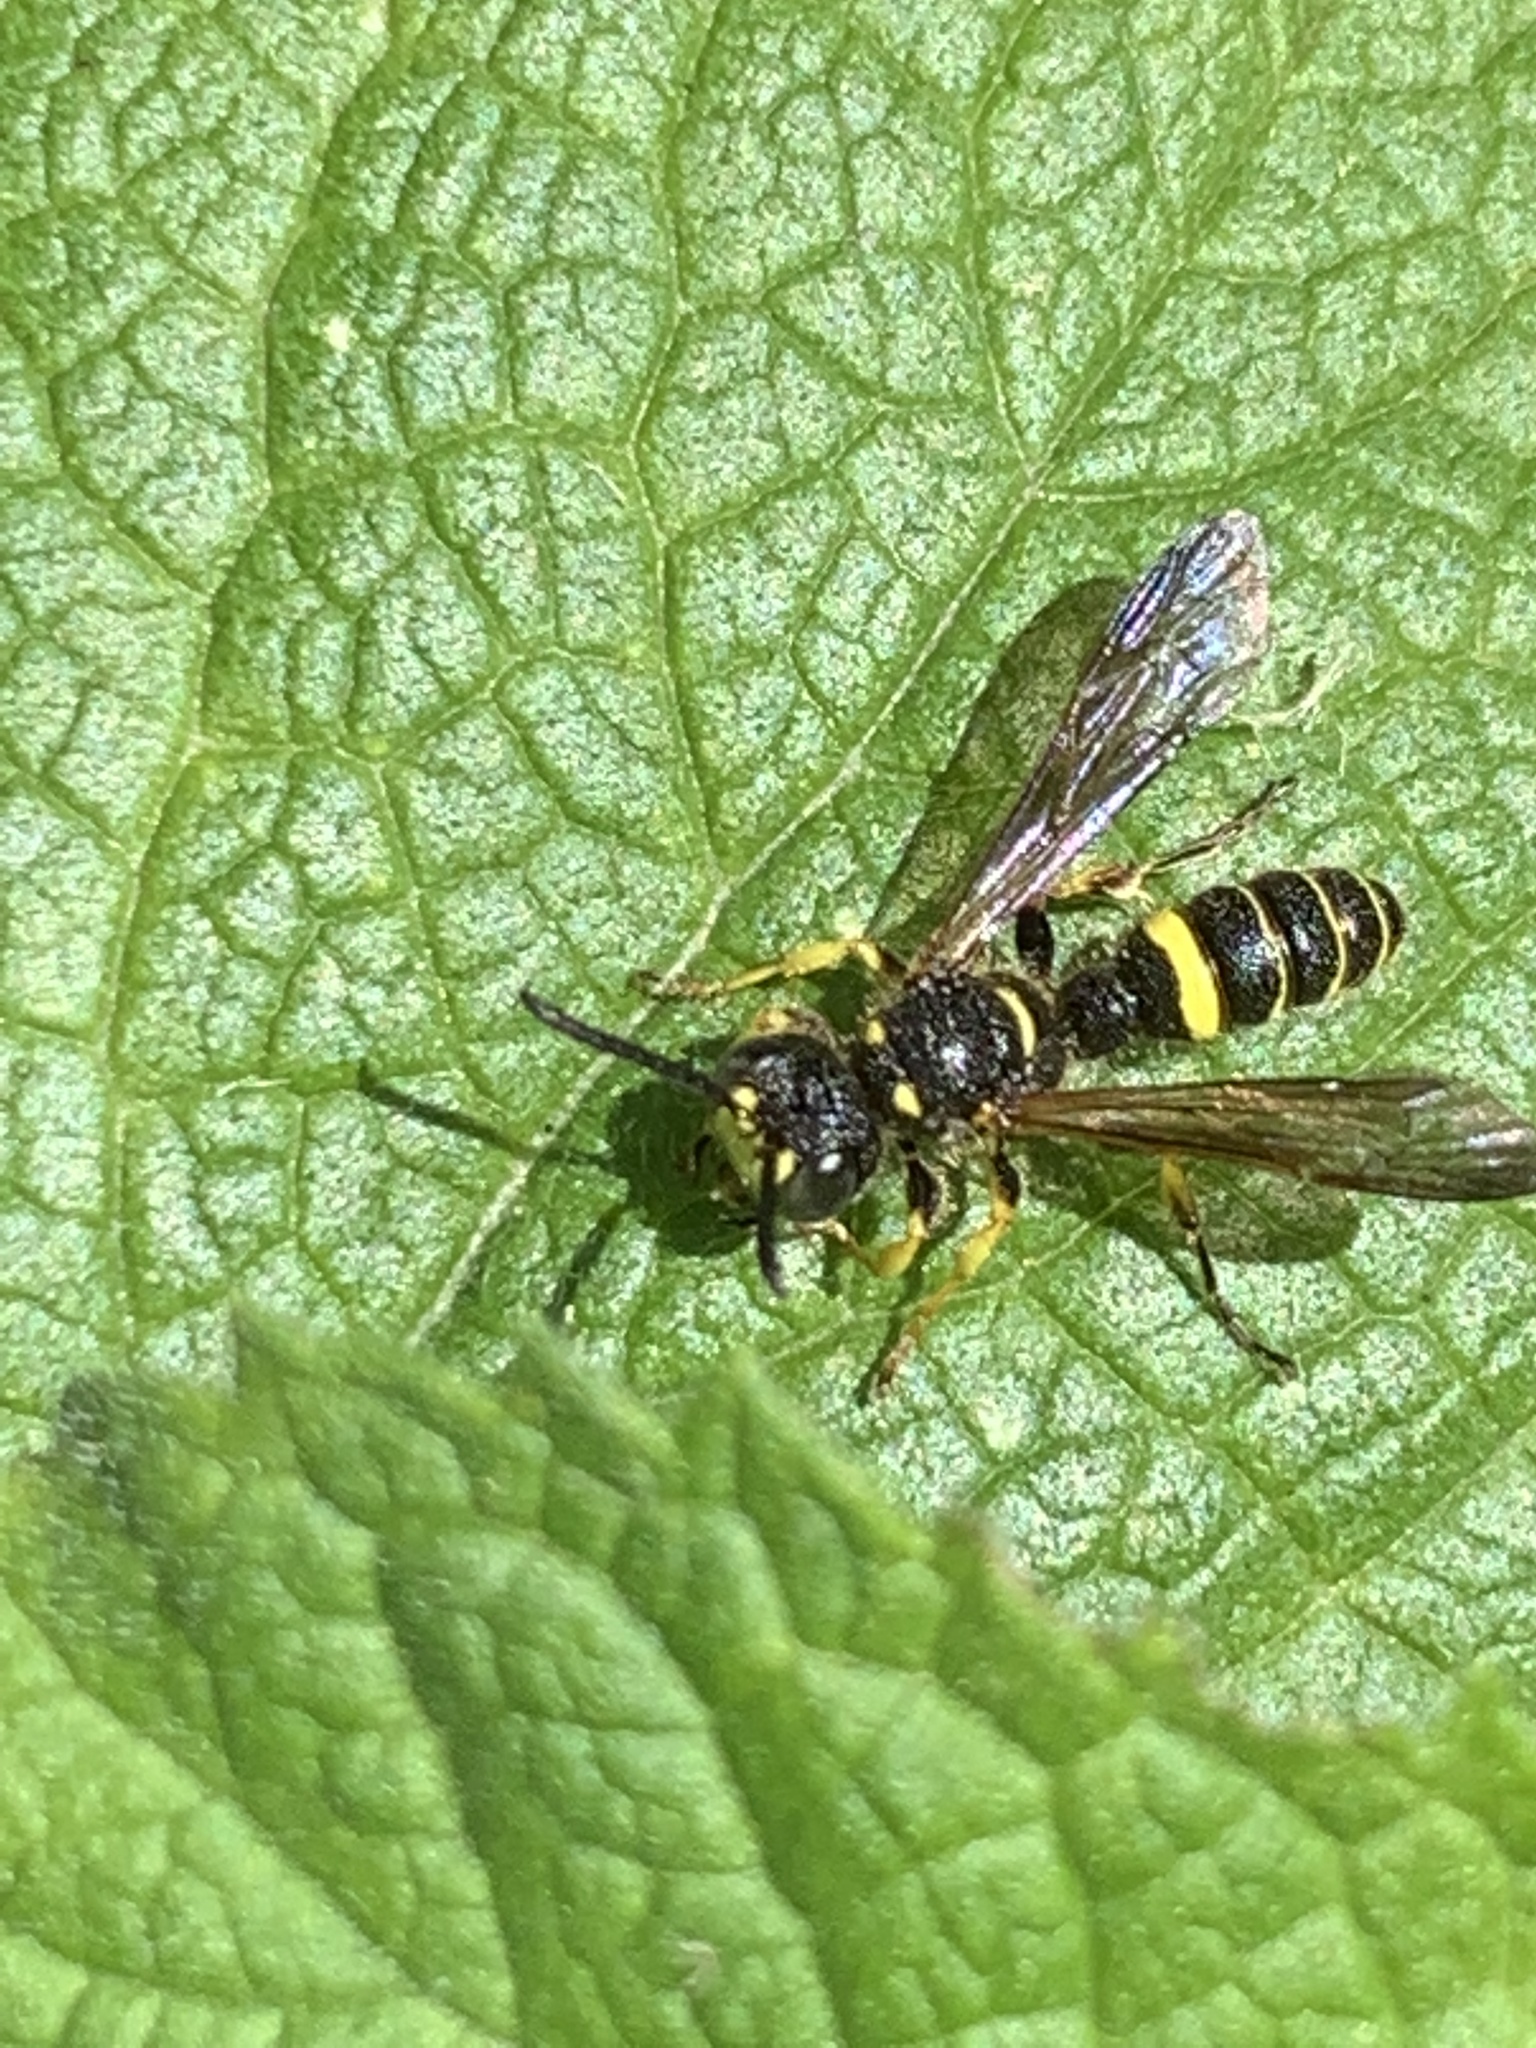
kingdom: Animalia
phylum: Arthropoda
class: Insecta
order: Hymenoptera
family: Crabronidae
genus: Cerceris
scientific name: Cerceris
